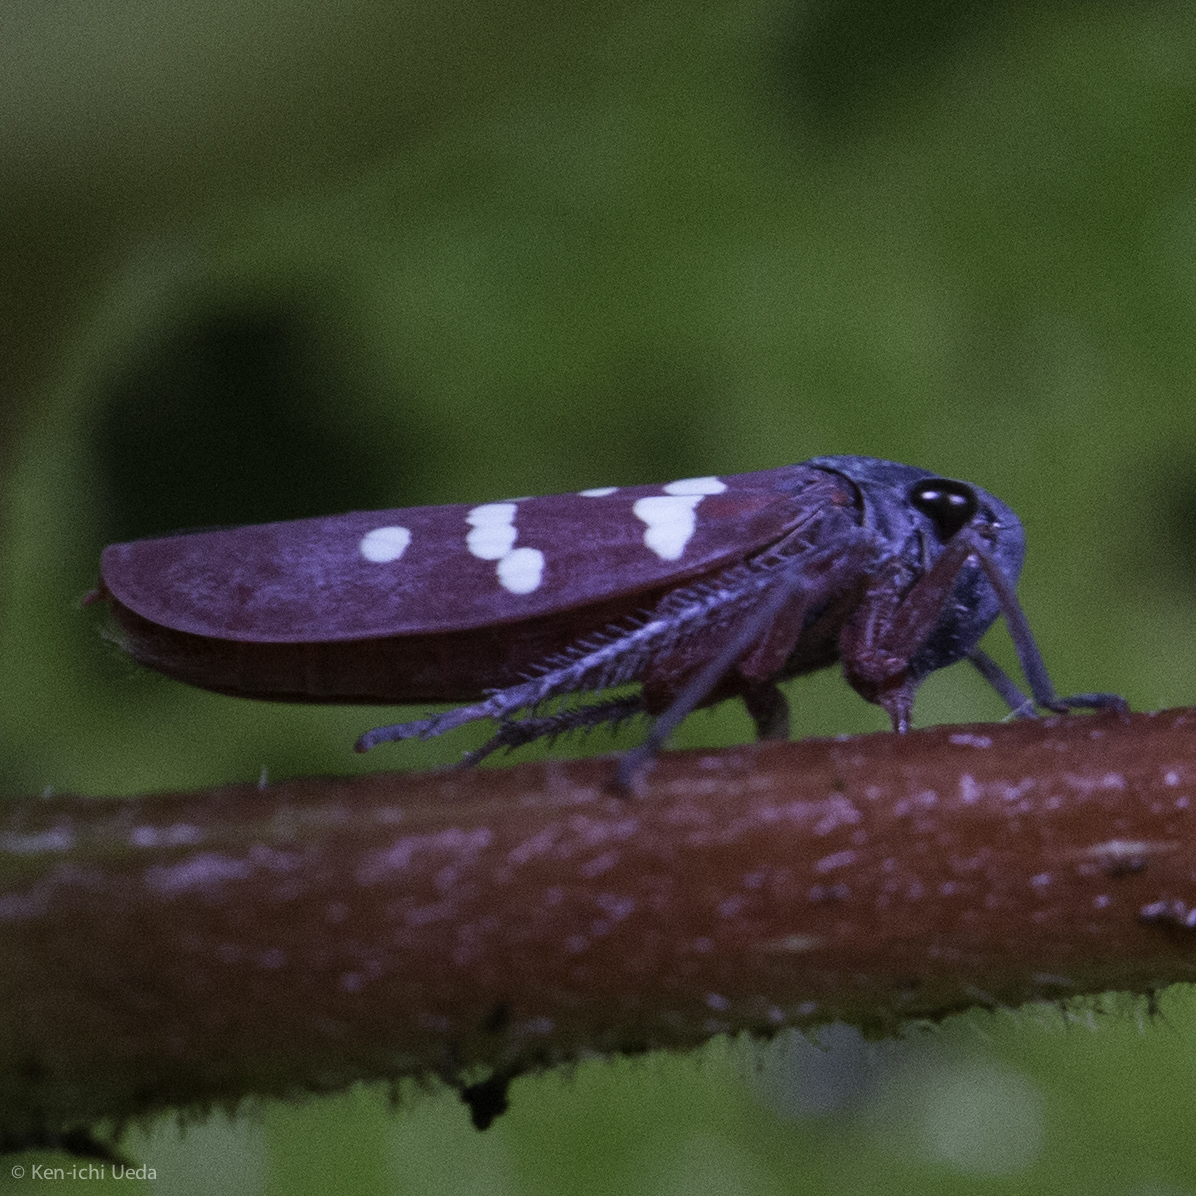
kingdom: Animalia
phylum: Arthropoda
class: Insecta
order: Hemiptera
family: Cicadellidae
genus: Graphocephala
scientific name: Graphocephala albomaculata
